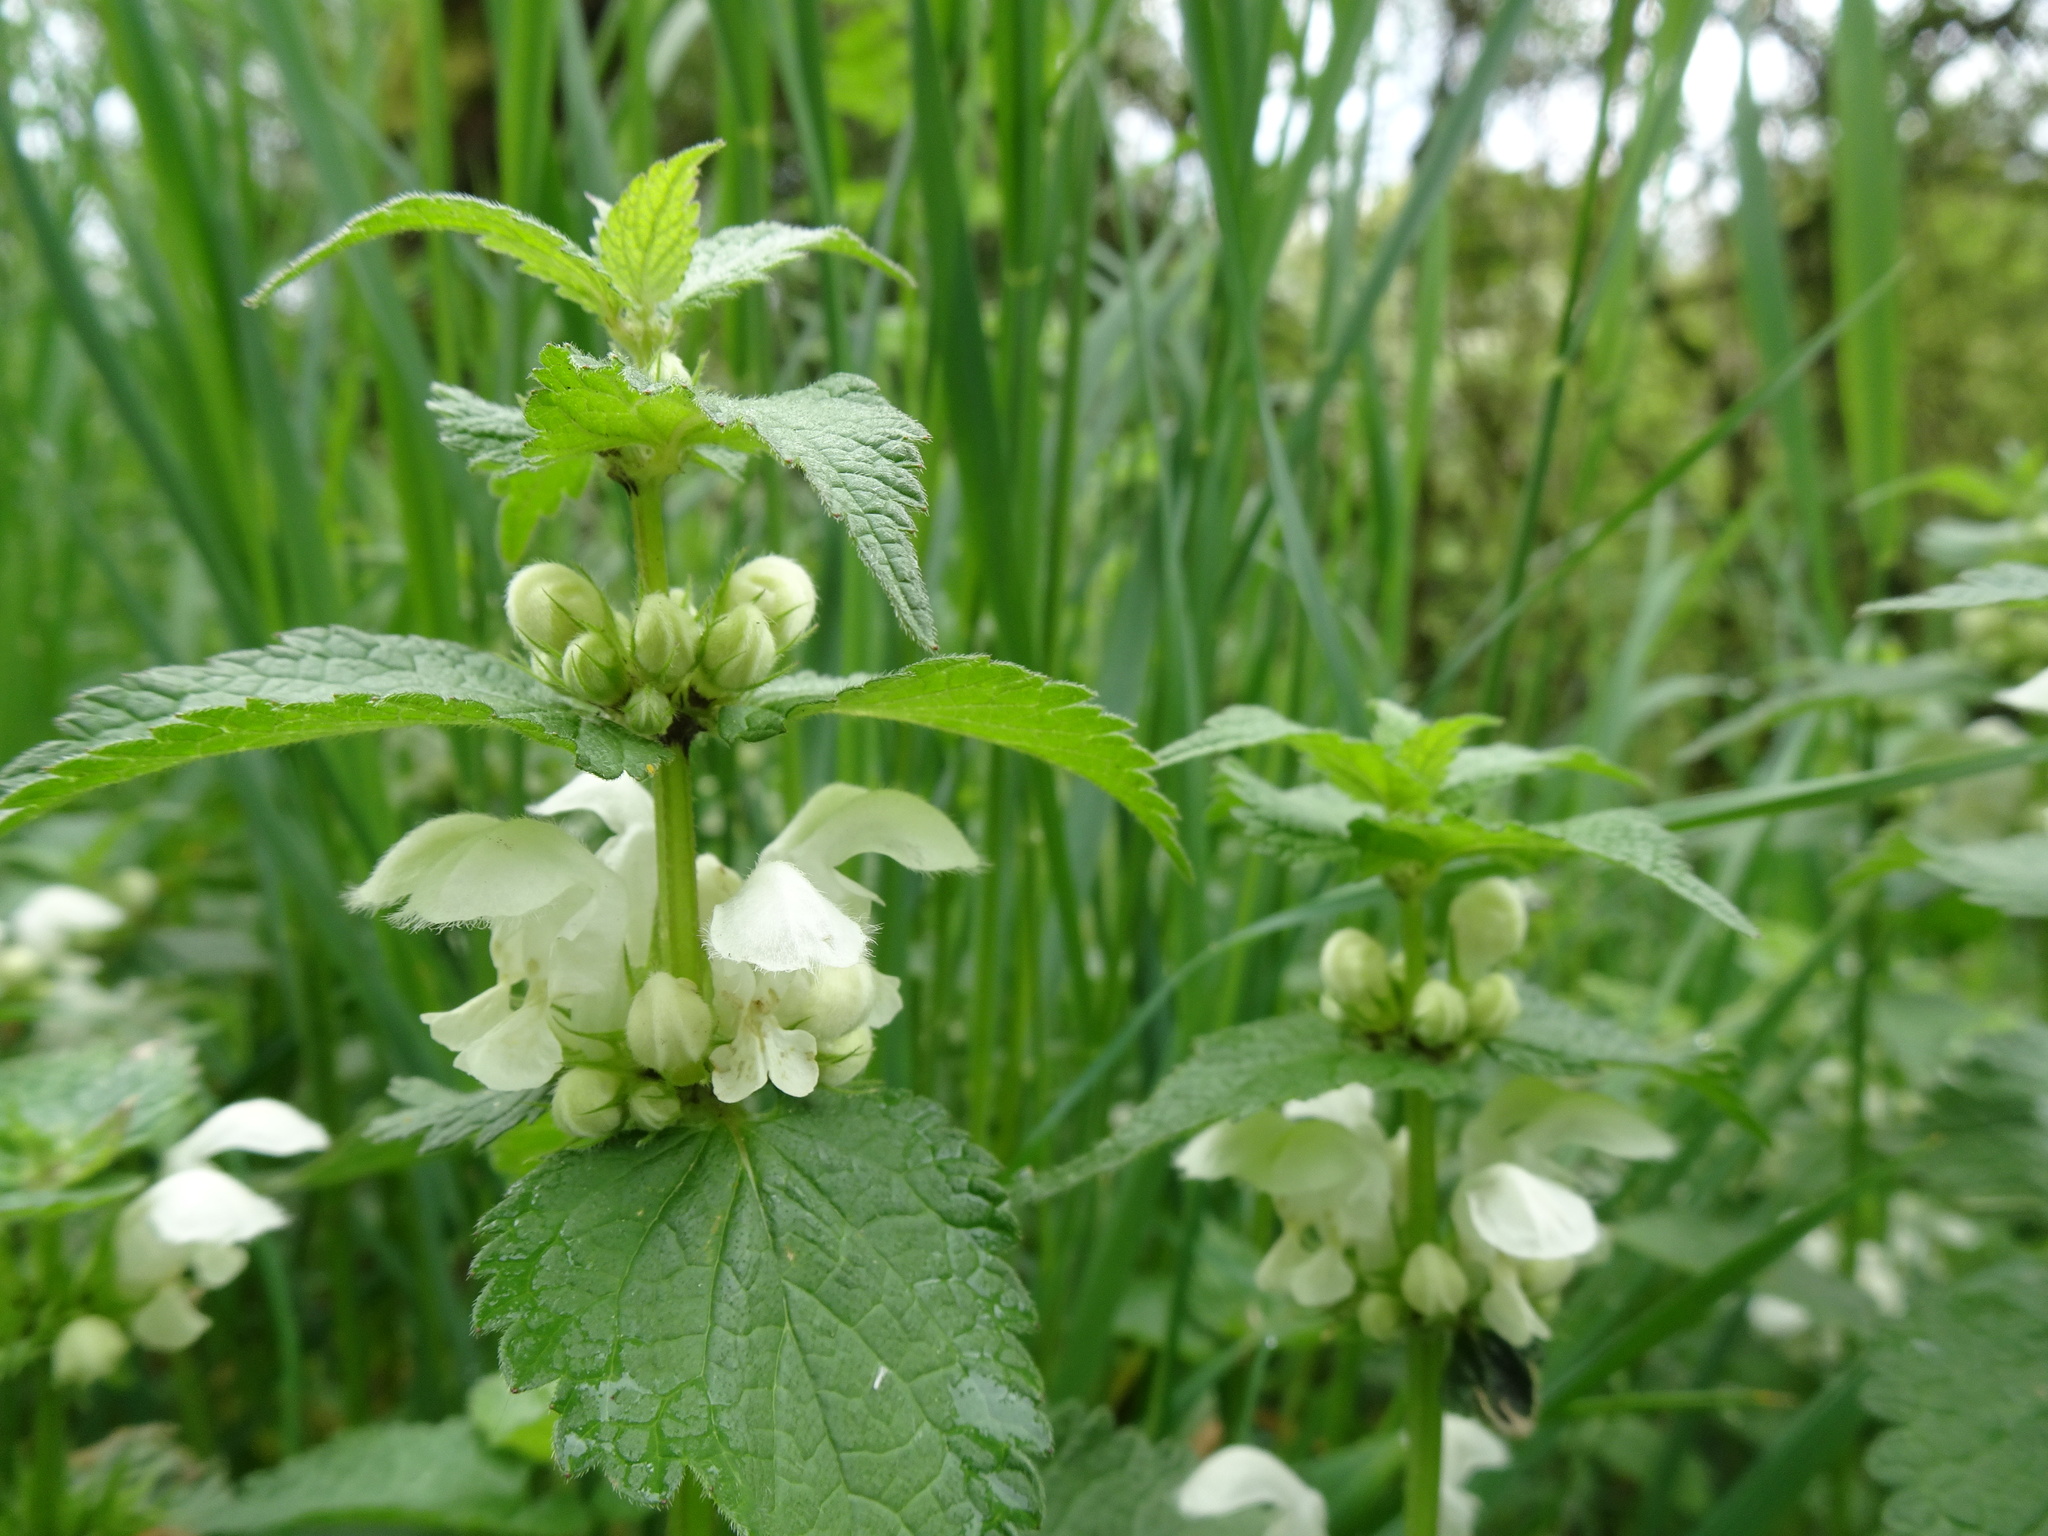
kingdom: Plantae
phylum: Tracheophyta
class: Magnoliopsida
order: Lamiales
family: Lamiaceae
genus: Lamium
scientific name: Lamium album
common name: White dead-nettle
